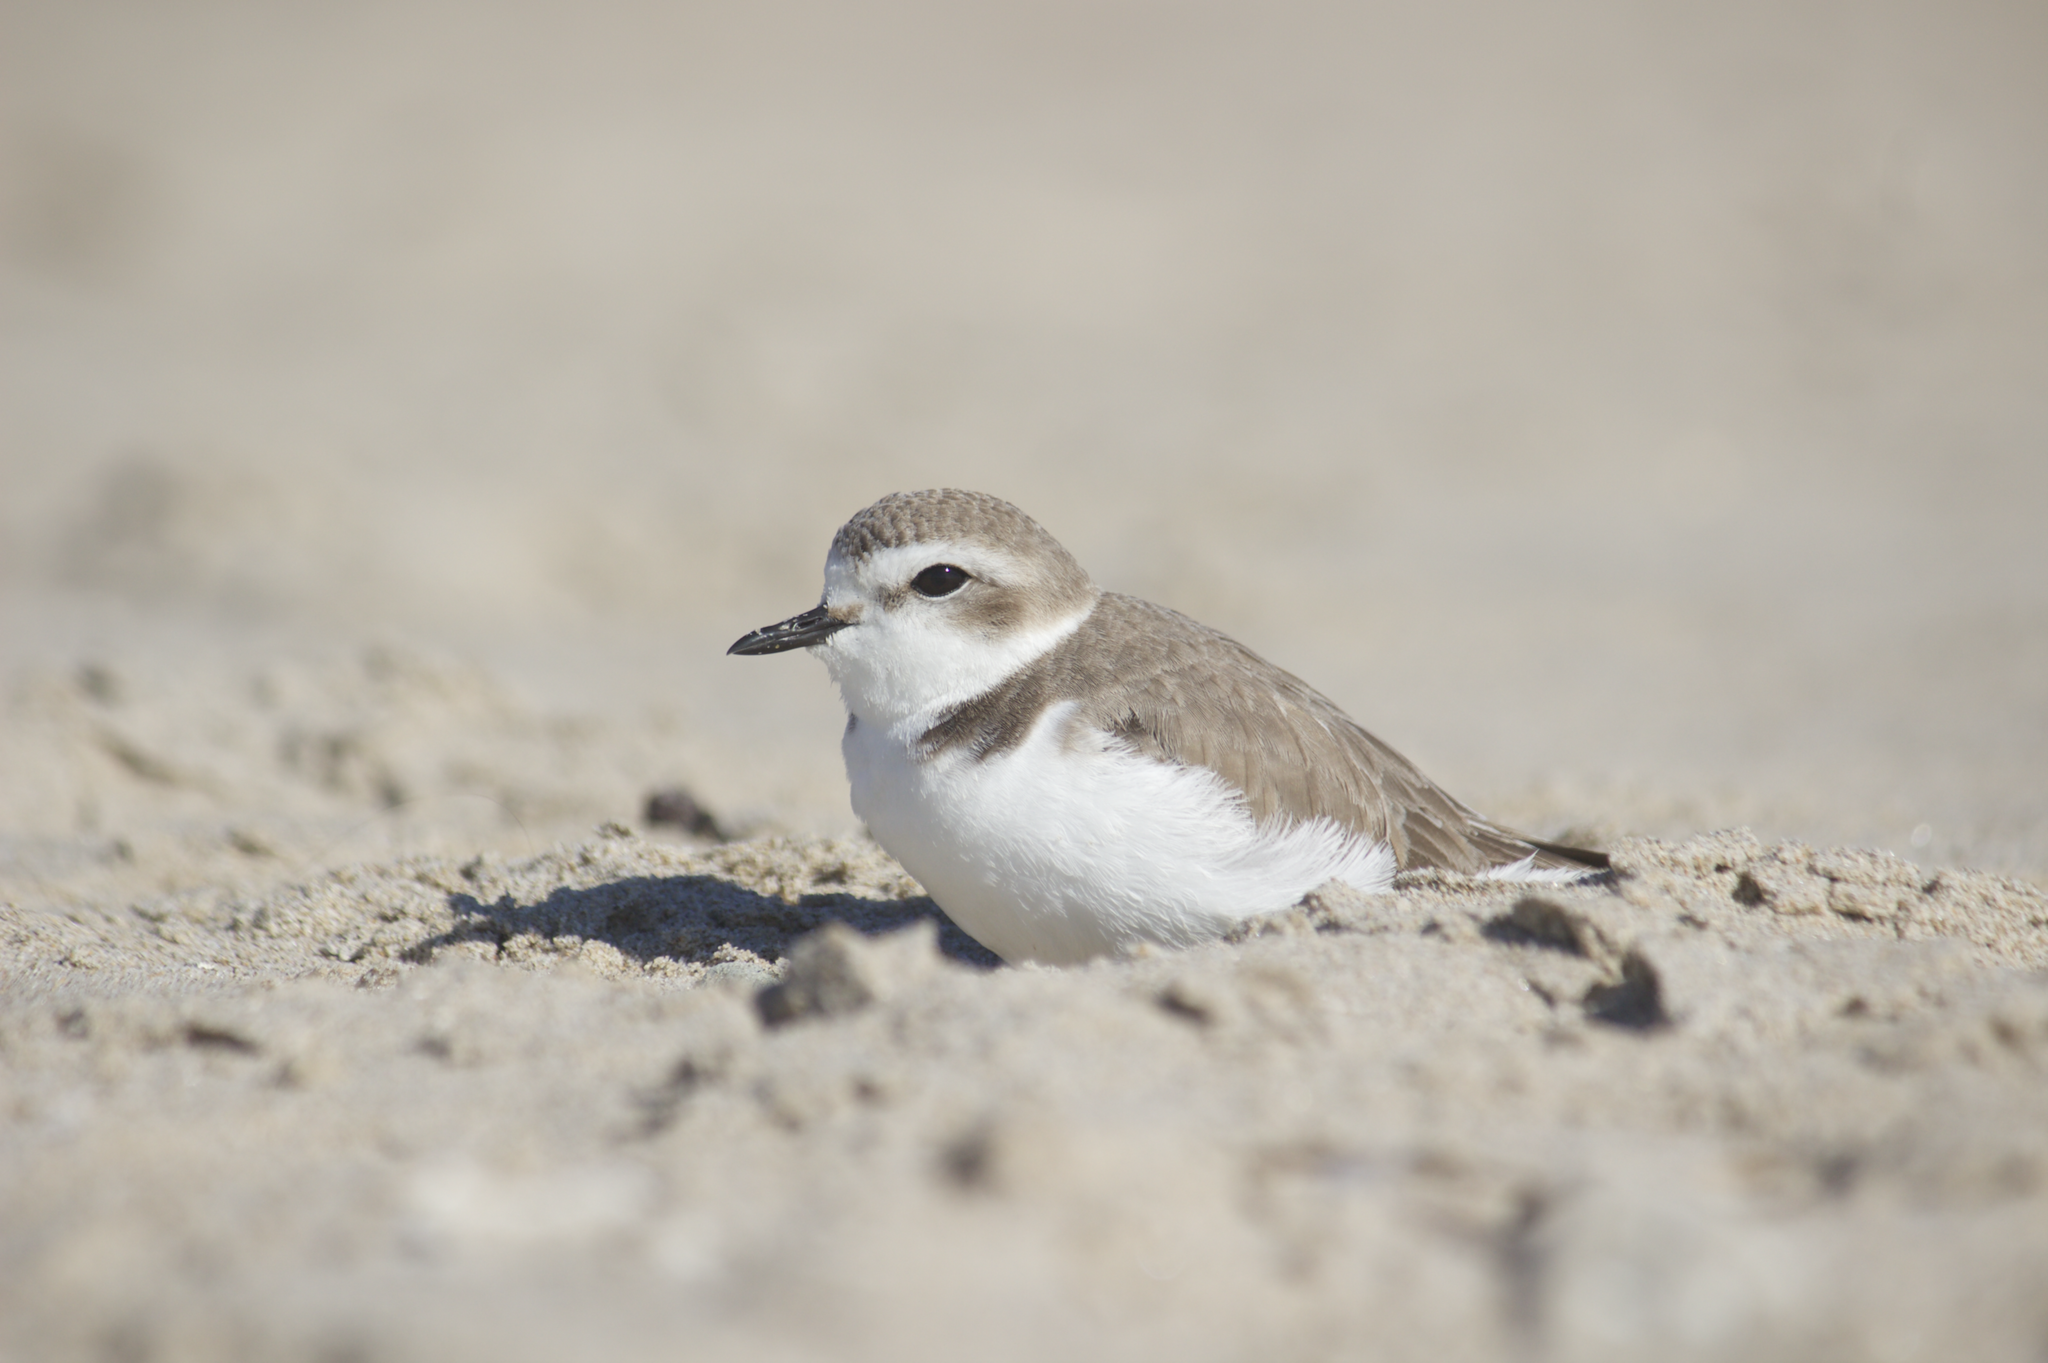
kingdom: Animalia
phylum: Chordata
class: Aves
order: Charadriiformes
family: Charadriidae
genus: Anarhynchus
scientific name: Anarhynchus
